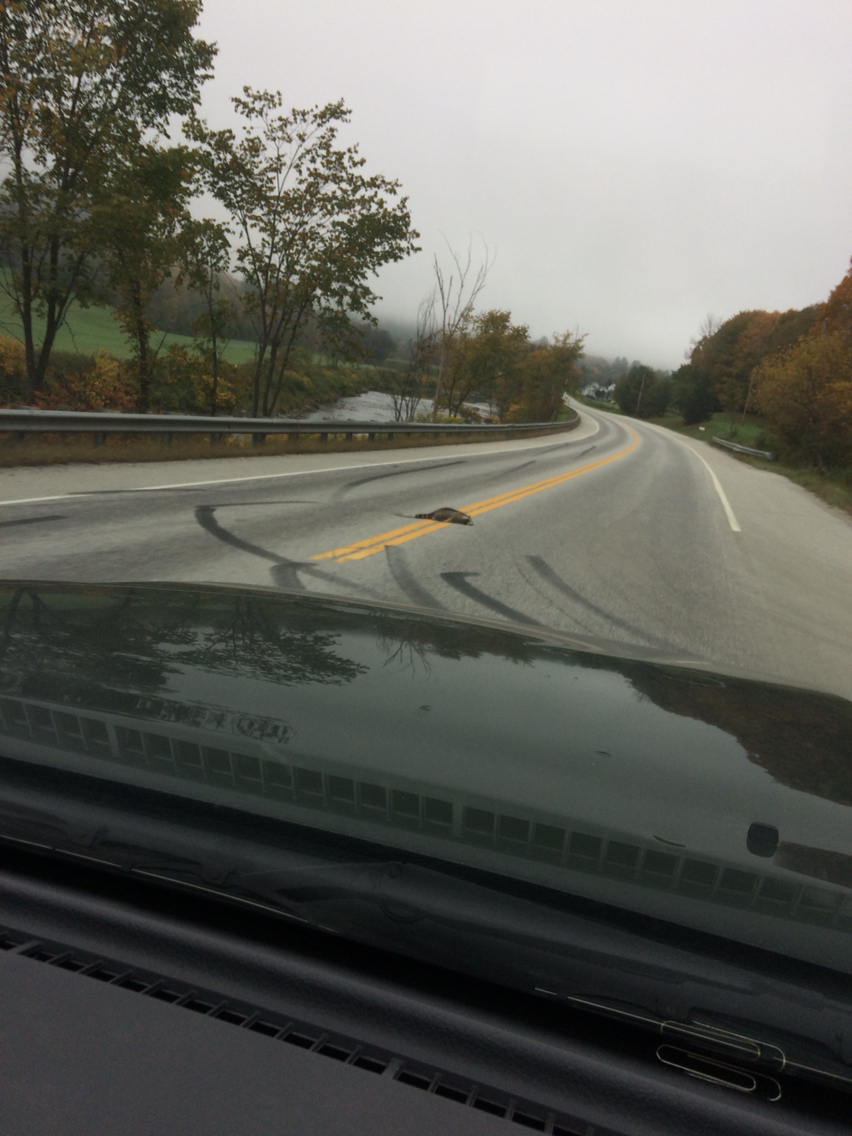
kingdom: Animalia
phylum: Chordata
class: Mammalia
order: Carnivora
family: Procyonidae
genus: Procyon
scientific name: Procyon lotor
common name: Raccoon
